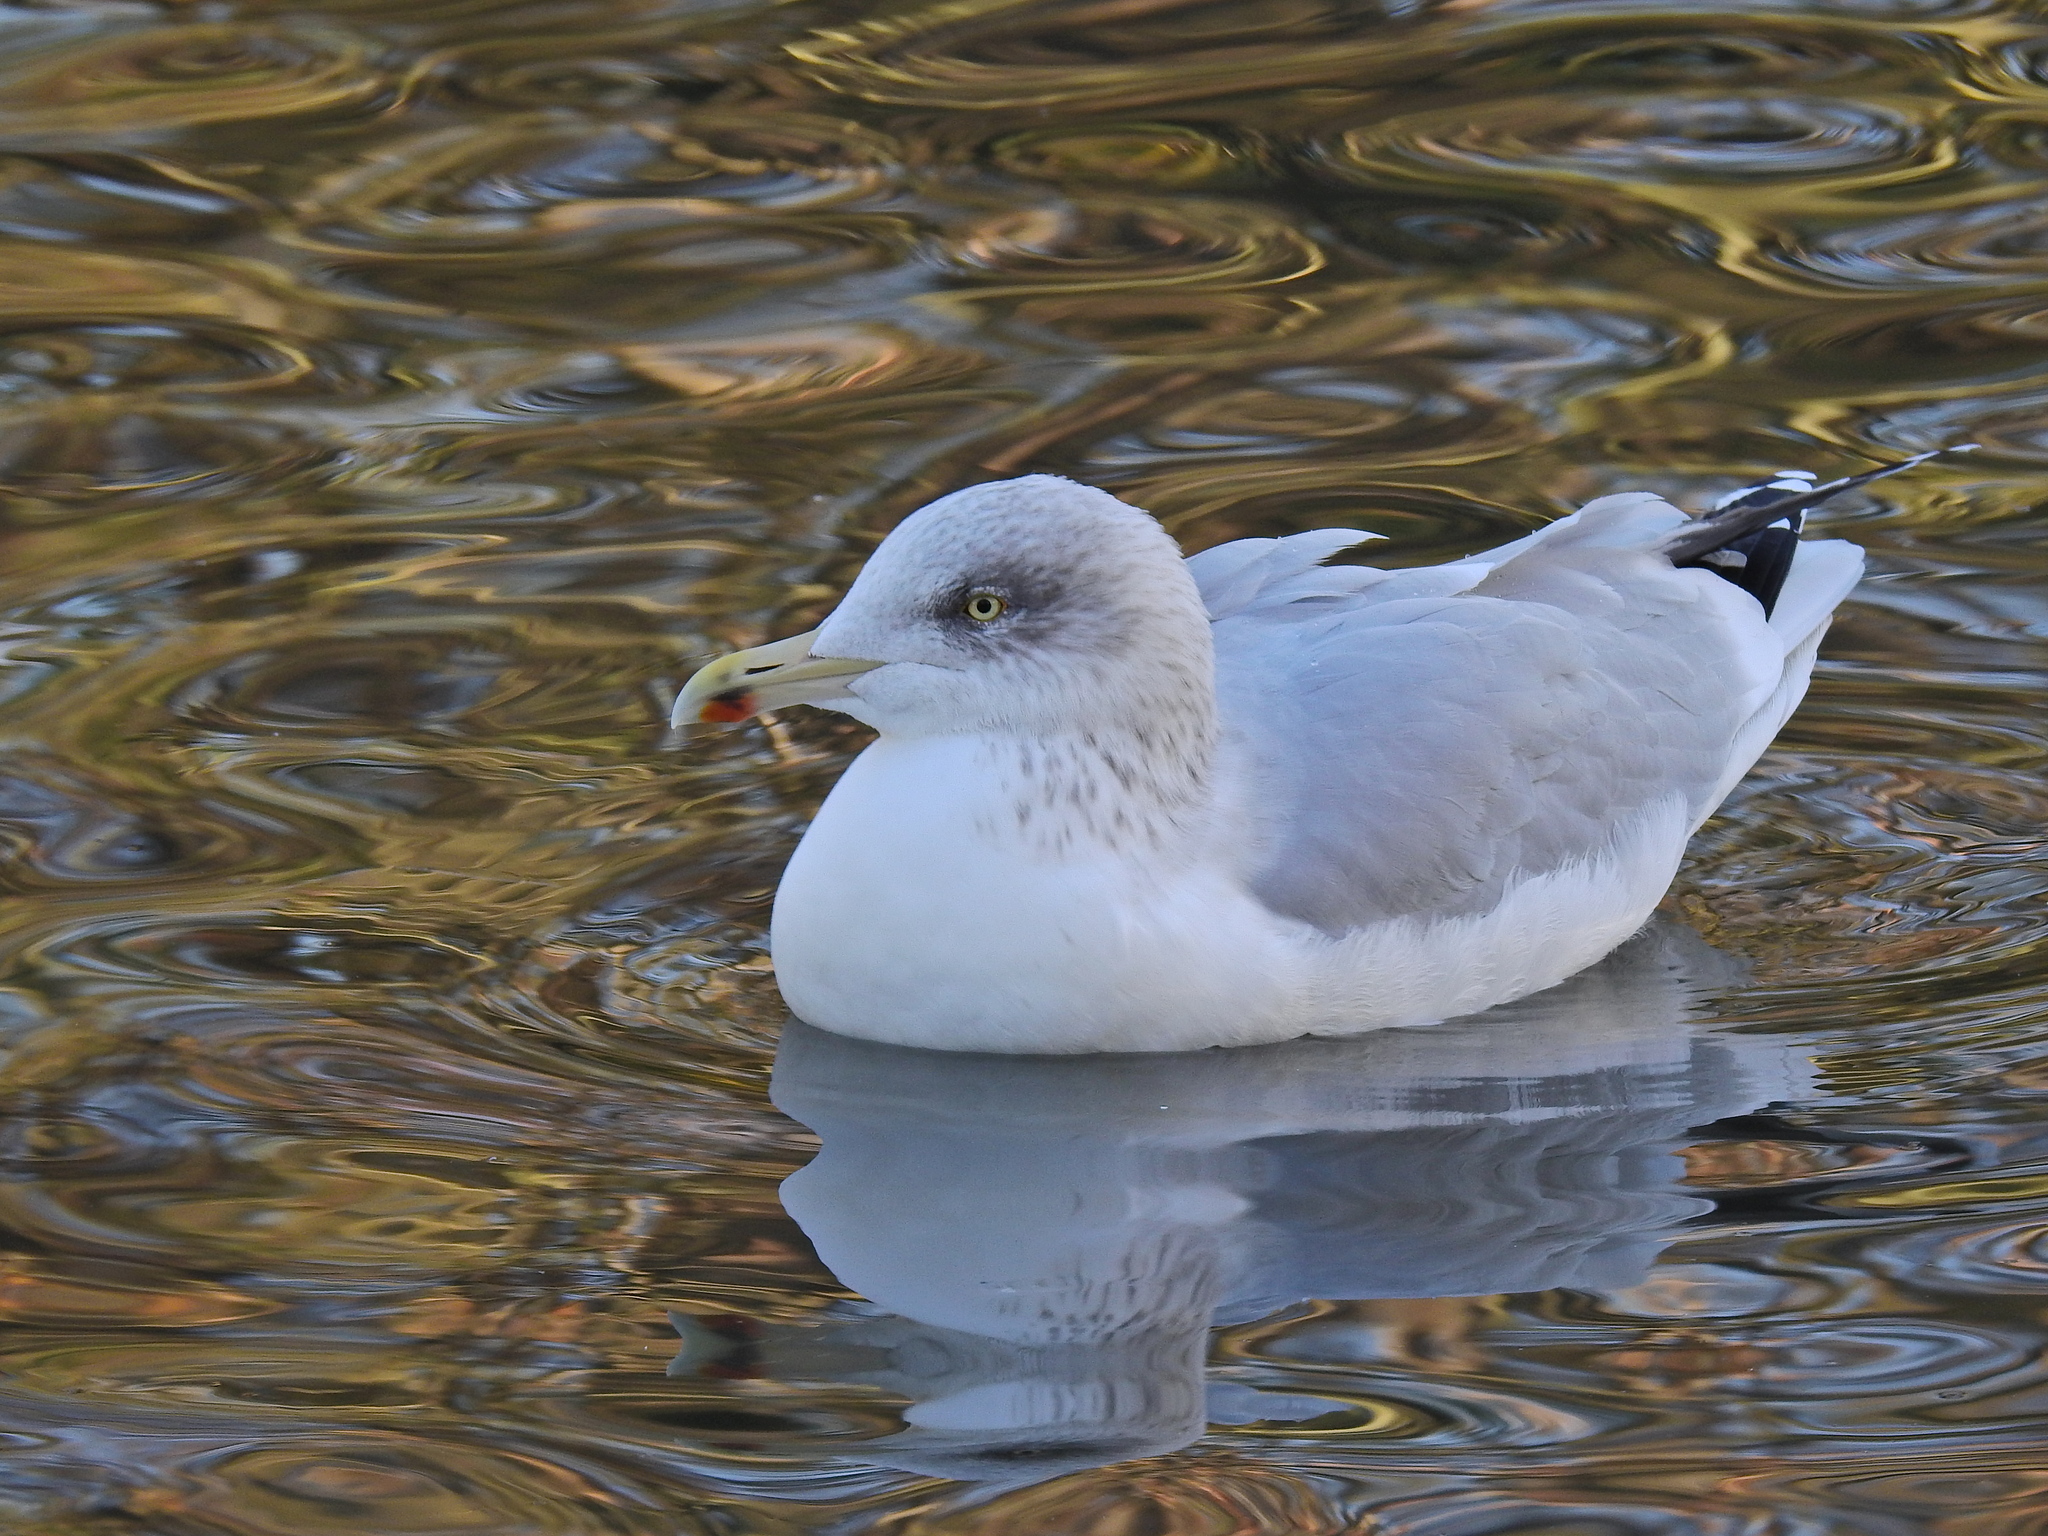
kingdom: Animalia
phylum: Chordata
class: Aves
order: Charadriiformes
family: Laridae
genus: Larus
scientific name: Larus argentatus
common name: Herring gull
